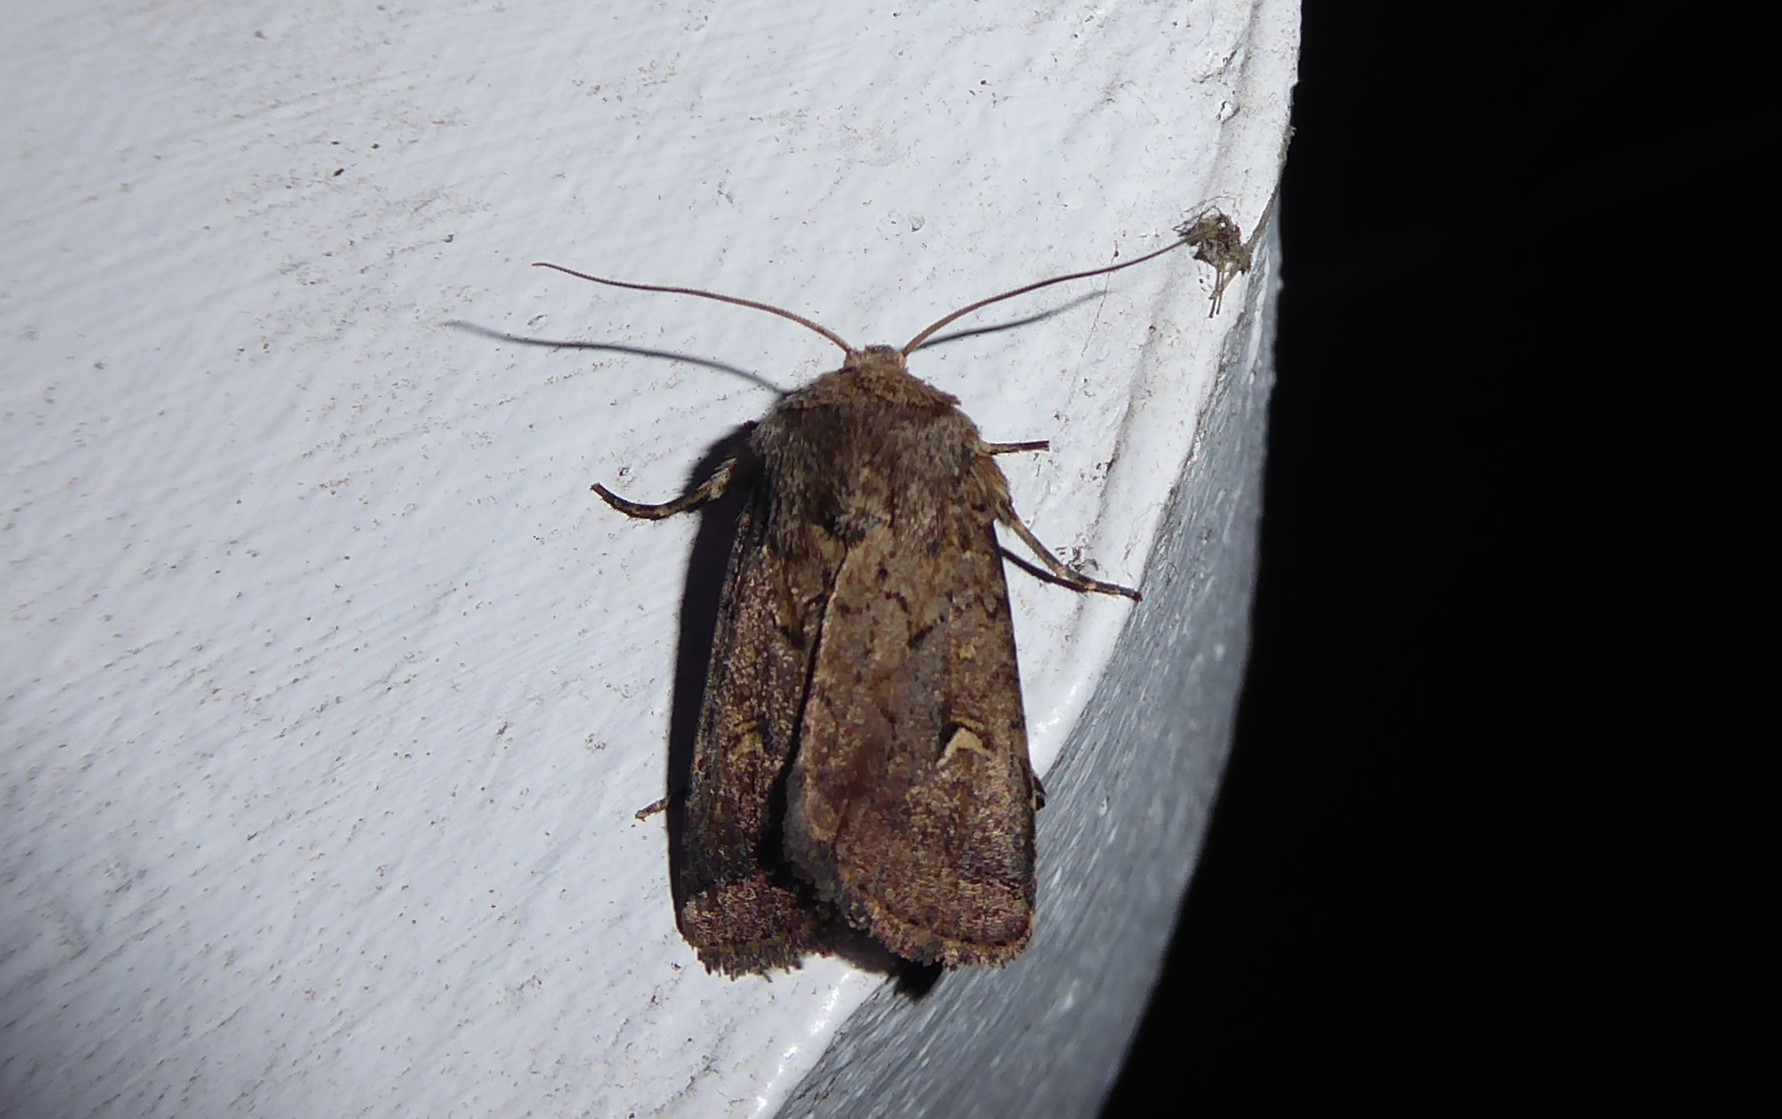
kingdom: Animalia
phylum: Arthropoda
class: Insecta
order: Lepidoptera
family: Noctuidae
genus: Proteuxoa
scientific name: Proteuxoa tetronycha
